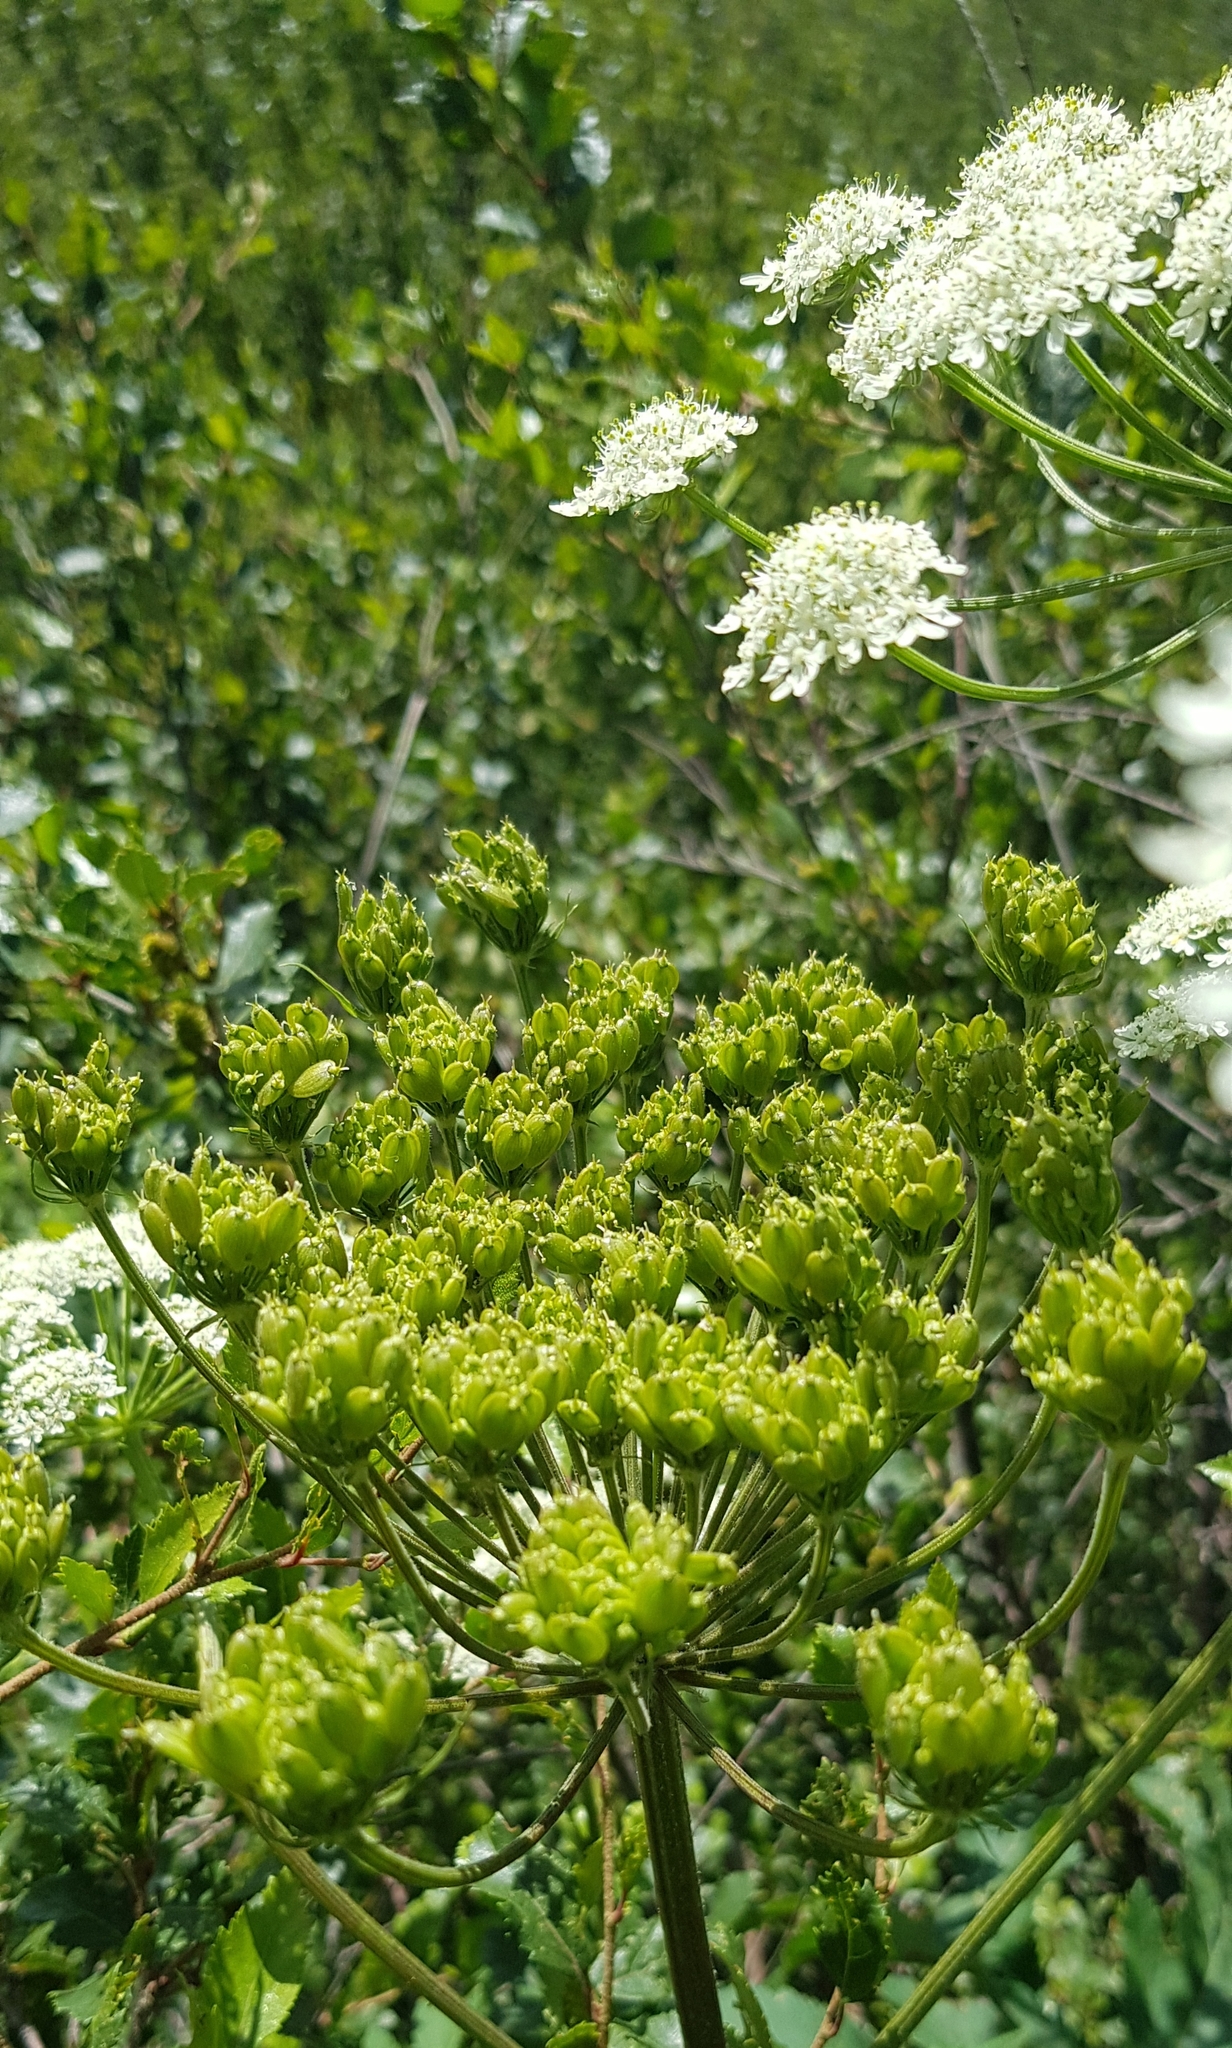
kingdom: Plantae
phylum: Tracheophyta
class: Magnoliopsida
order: Apiales
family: Apiaceae
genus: Heracleum
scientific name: Heracleum dissectum
